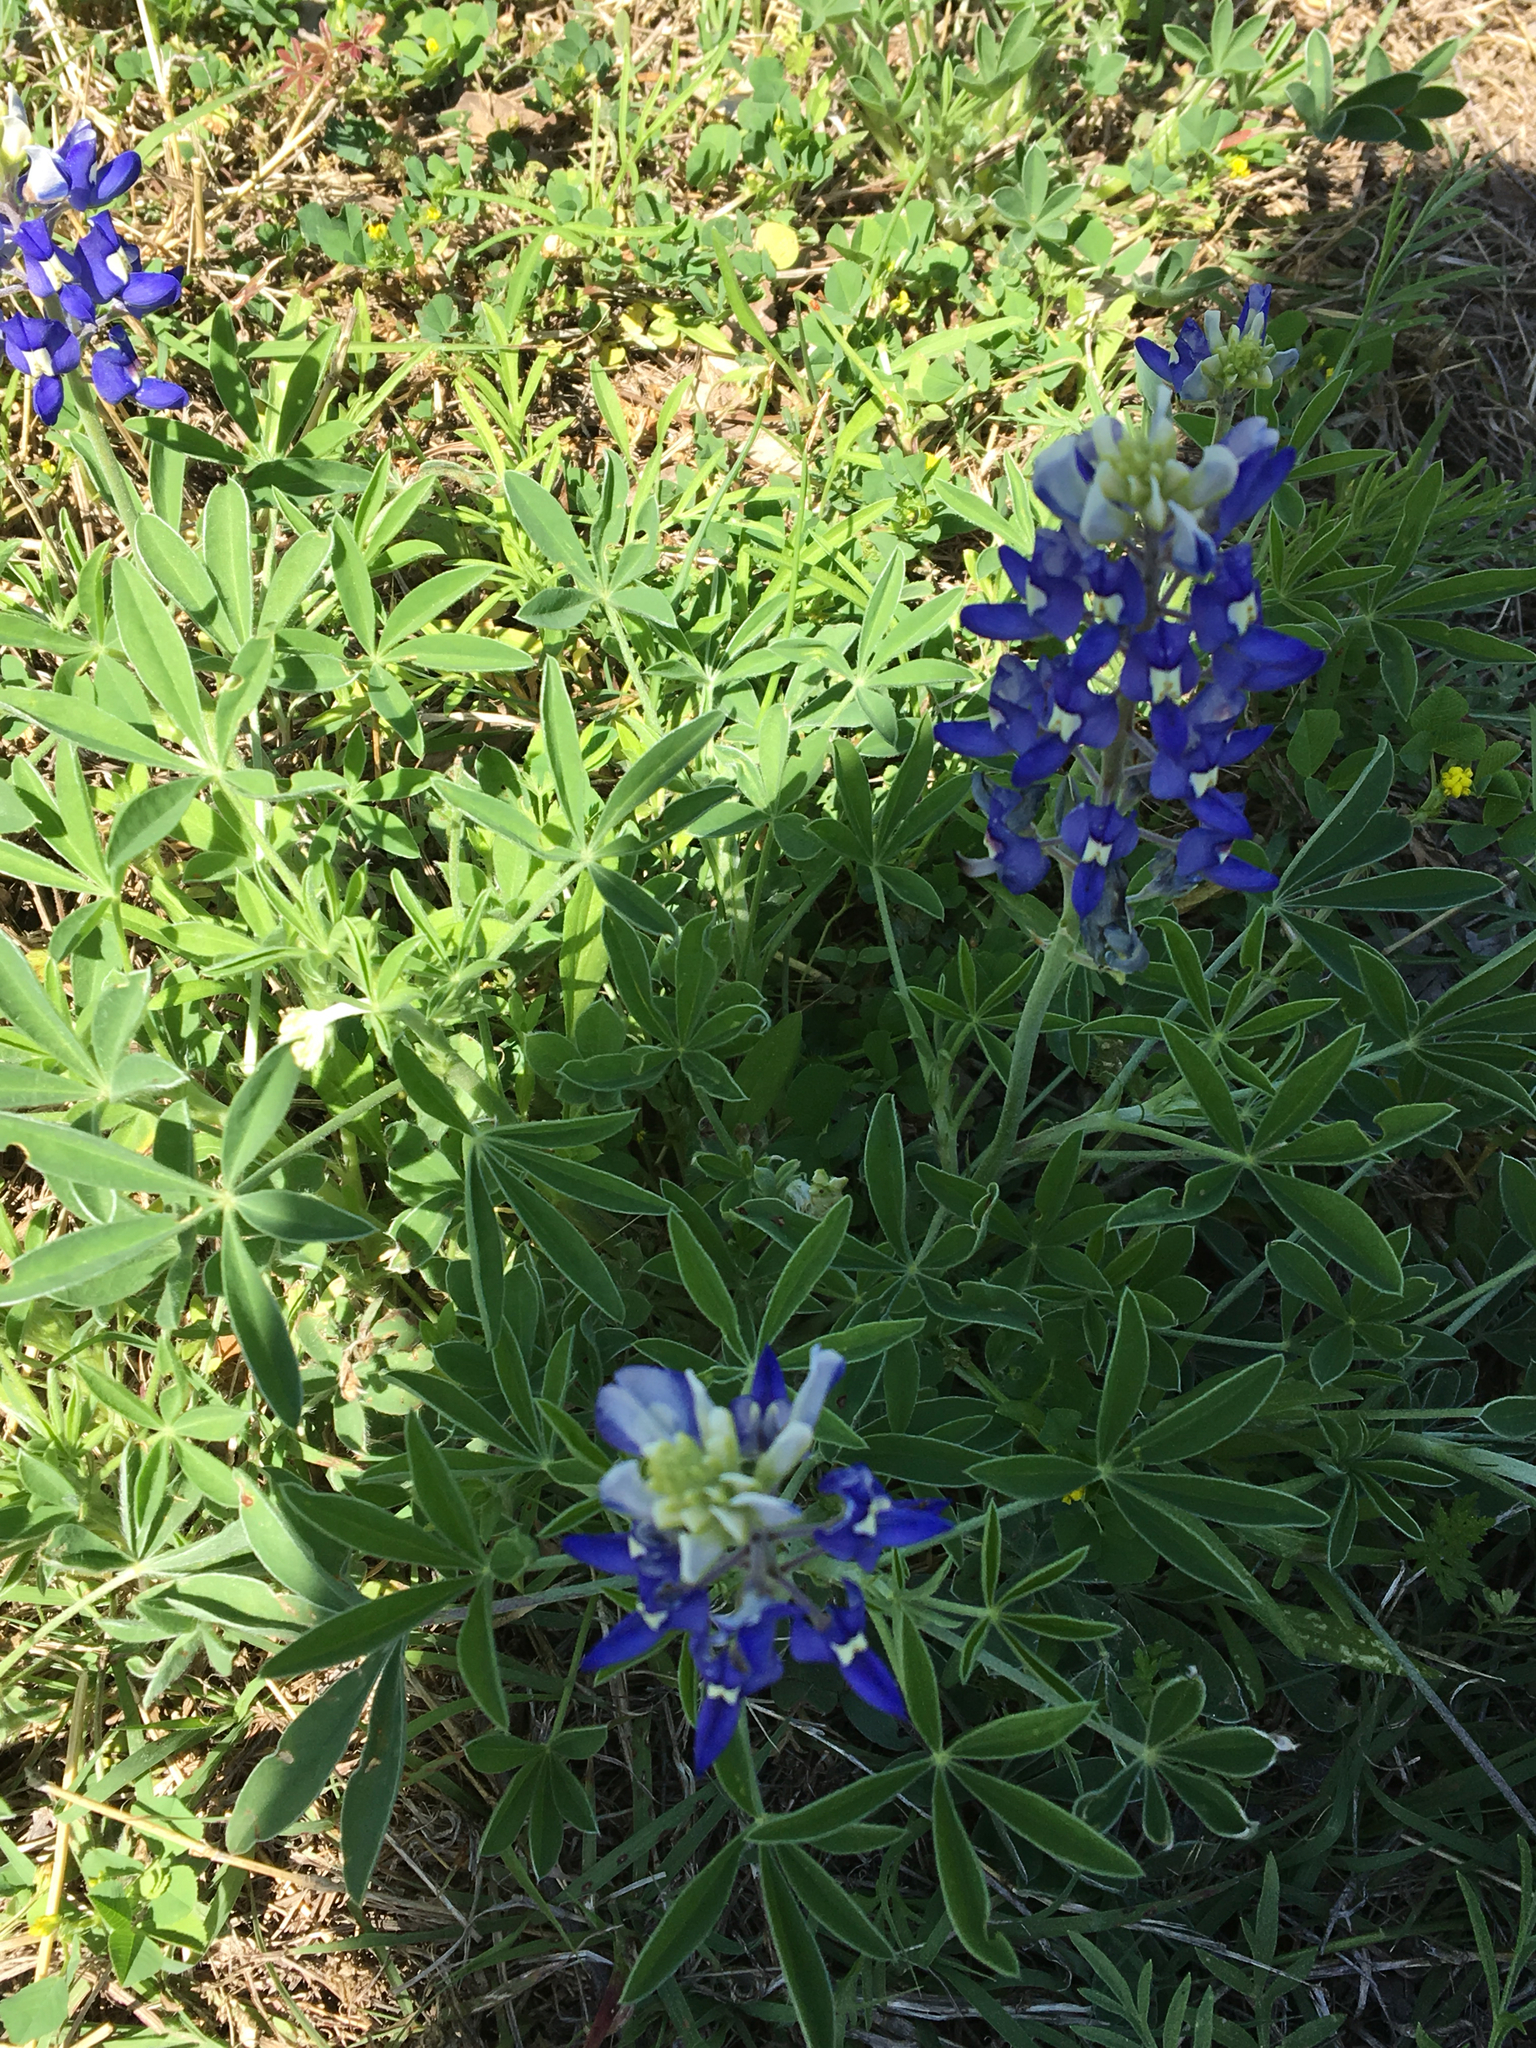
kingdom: Plantae
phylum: Tracheophyta
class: Magnoliopsida
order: Fabales
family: Fabaceae
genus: Lupinus
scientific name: Lupinus texensis
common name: Texas bluebonnet
